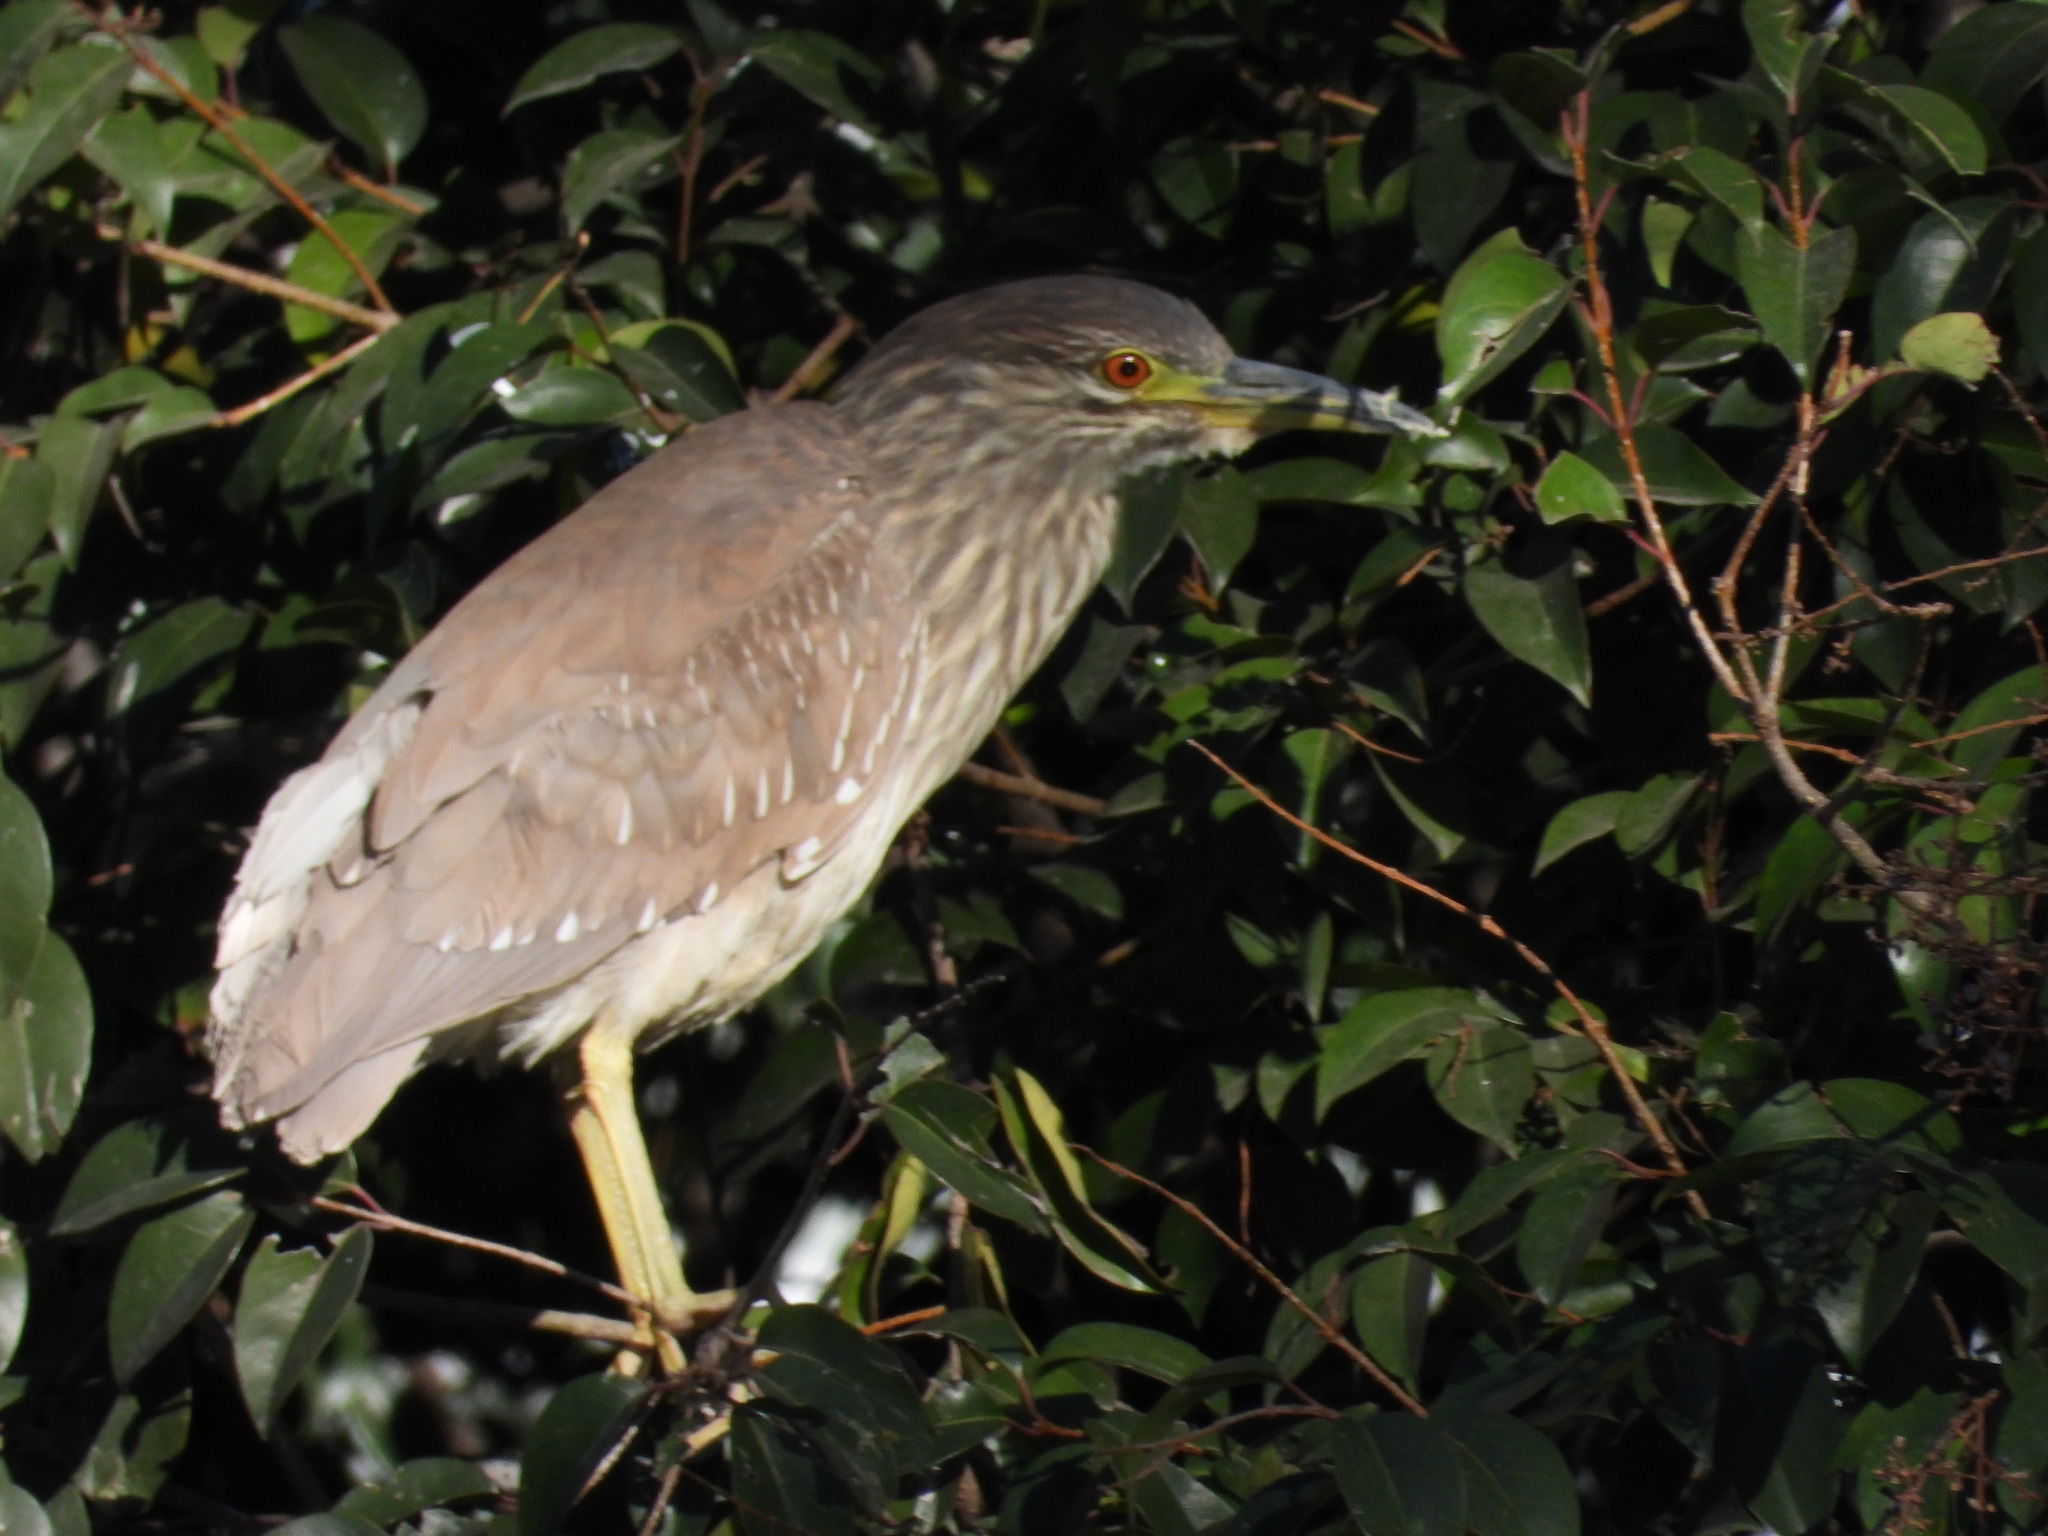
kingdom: Animalia
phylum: Chordata
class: Aves
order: Pelecaniformes
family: Ardeidae
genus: Nycticorax
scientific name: Nycticorax nycticorax
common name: Black-crowned night heron
